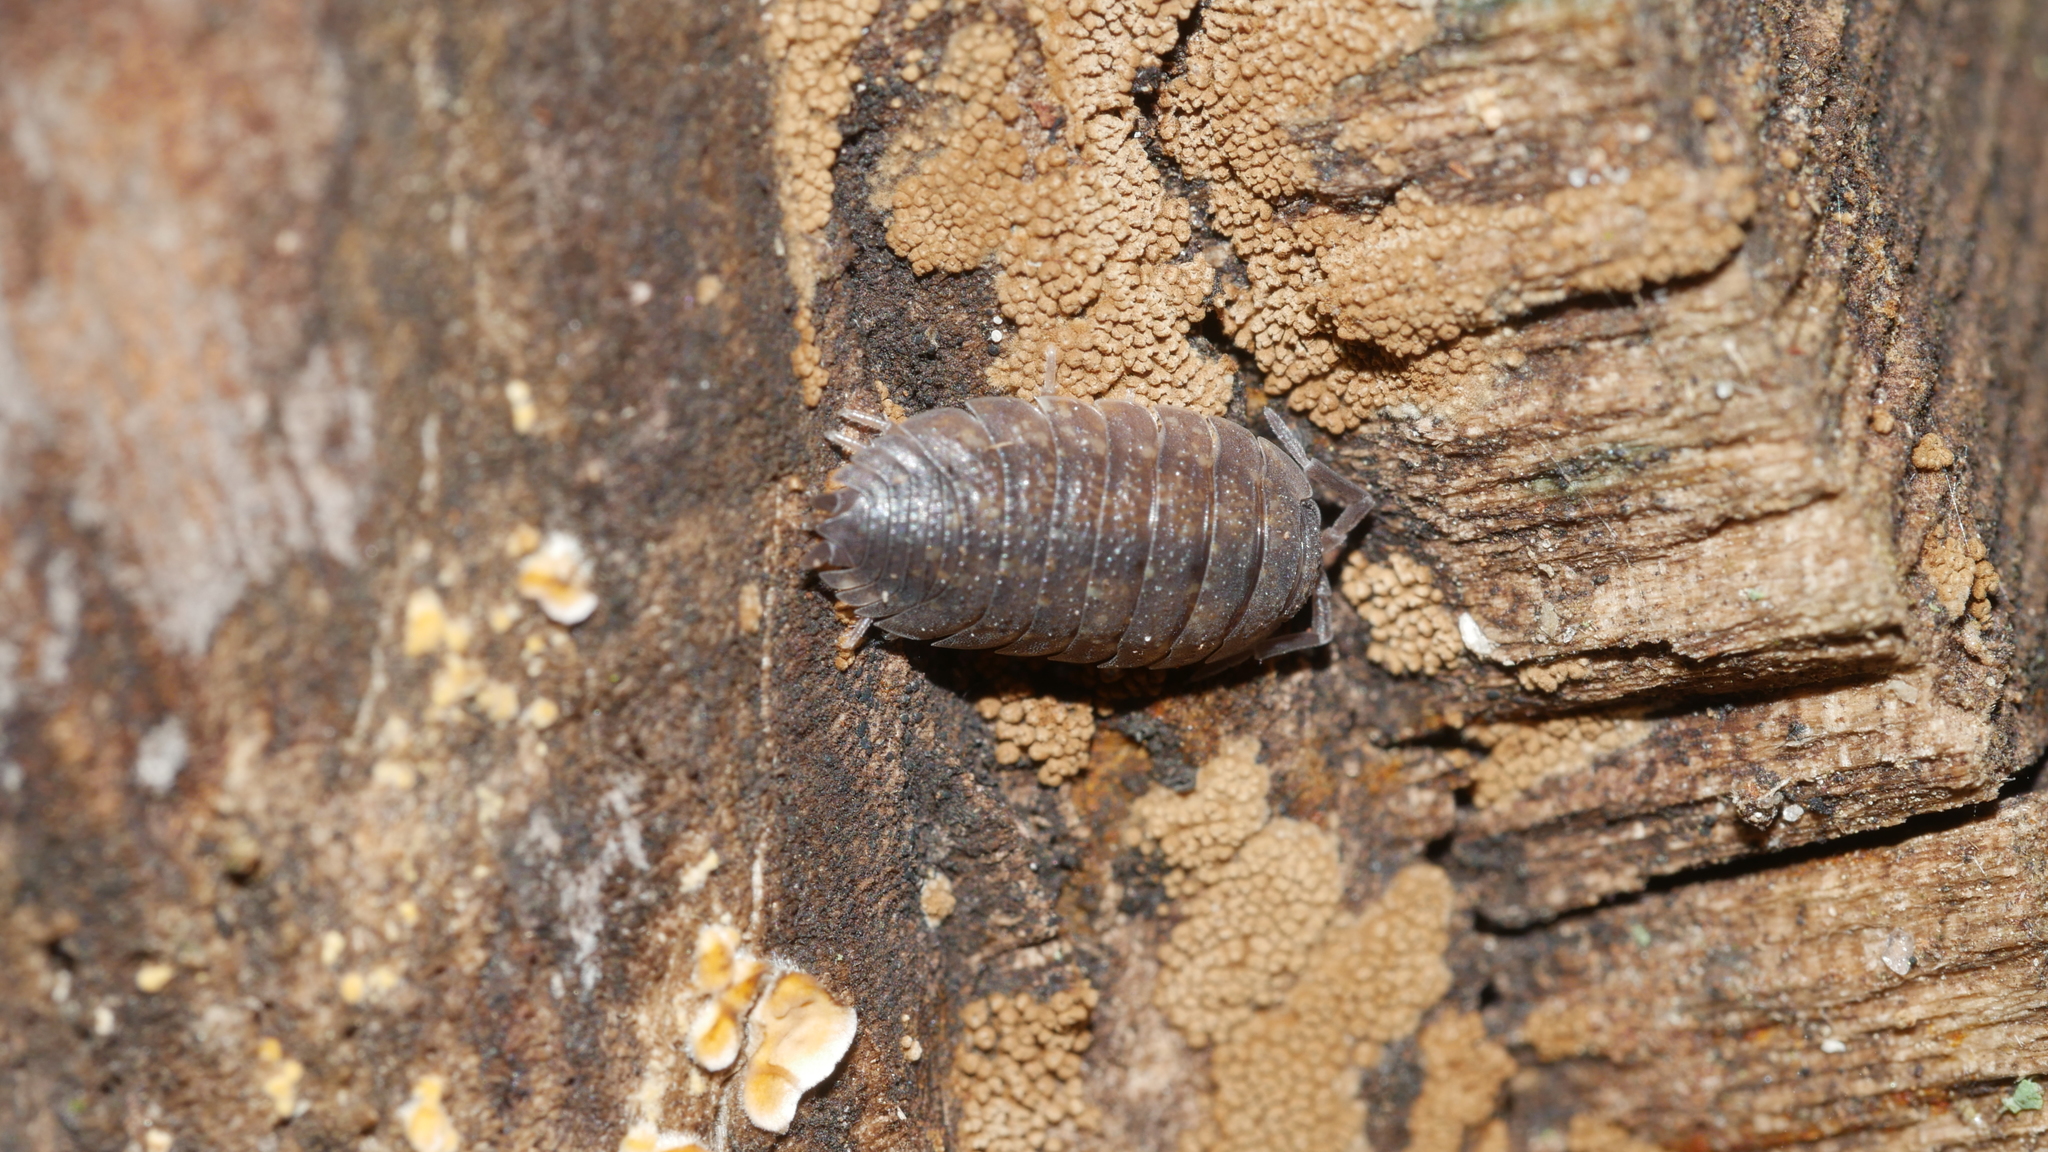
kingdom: Animalia
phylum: Arthropoda
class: Malacostraca
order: Isopoda
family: Porcellionidae
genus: Porcellio
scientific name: Porcellio scaber
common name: Common rough woodlouse
